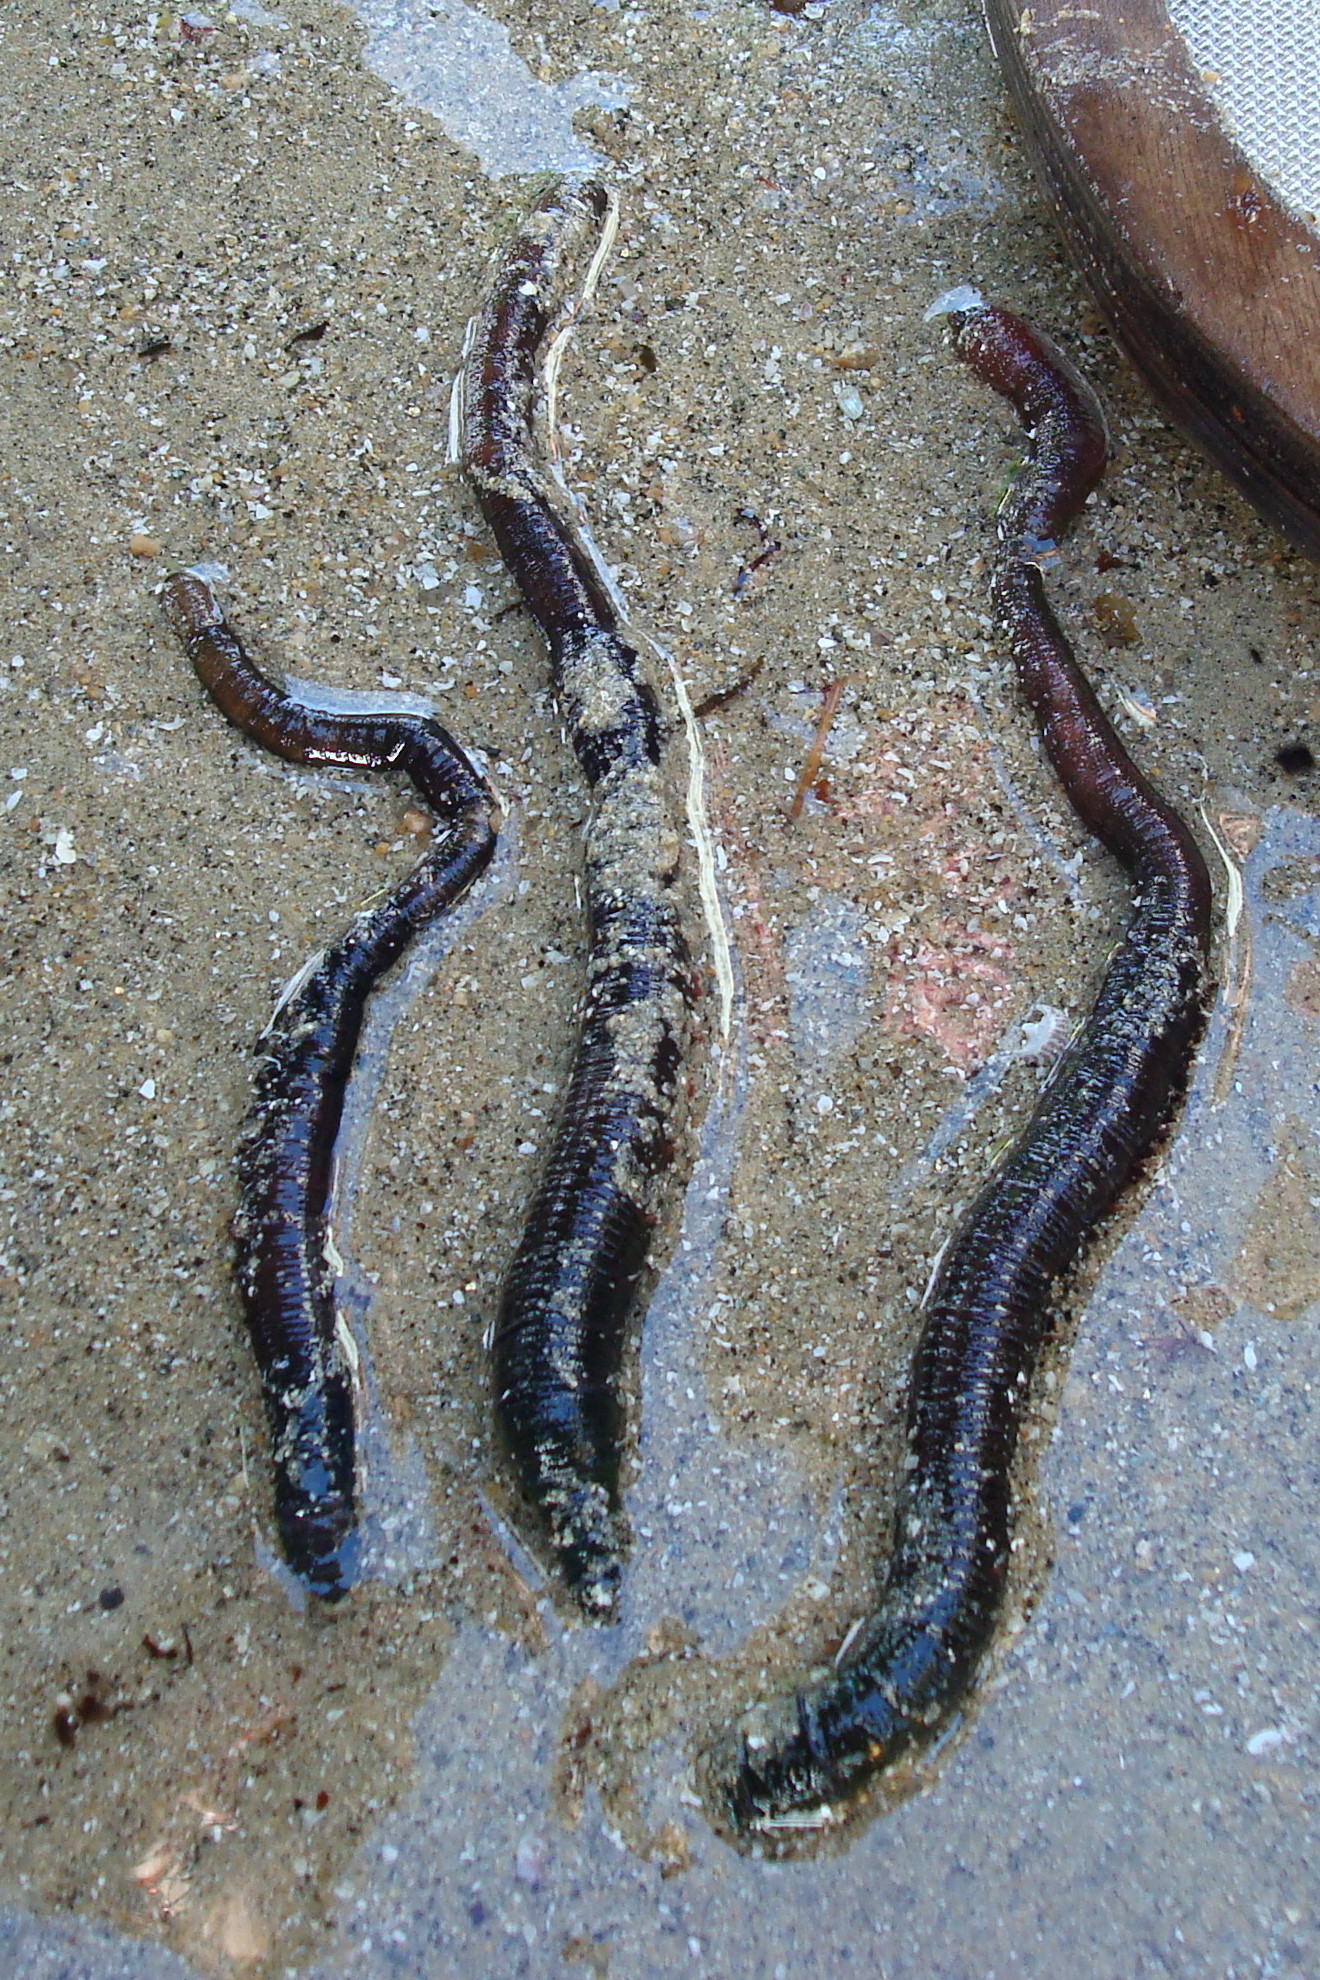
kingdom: Animalia
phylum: Annelida
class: Polychaeta
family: Arenicolidae
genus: Arenicola
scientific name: Arenicola marina
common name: Blow lugworm
